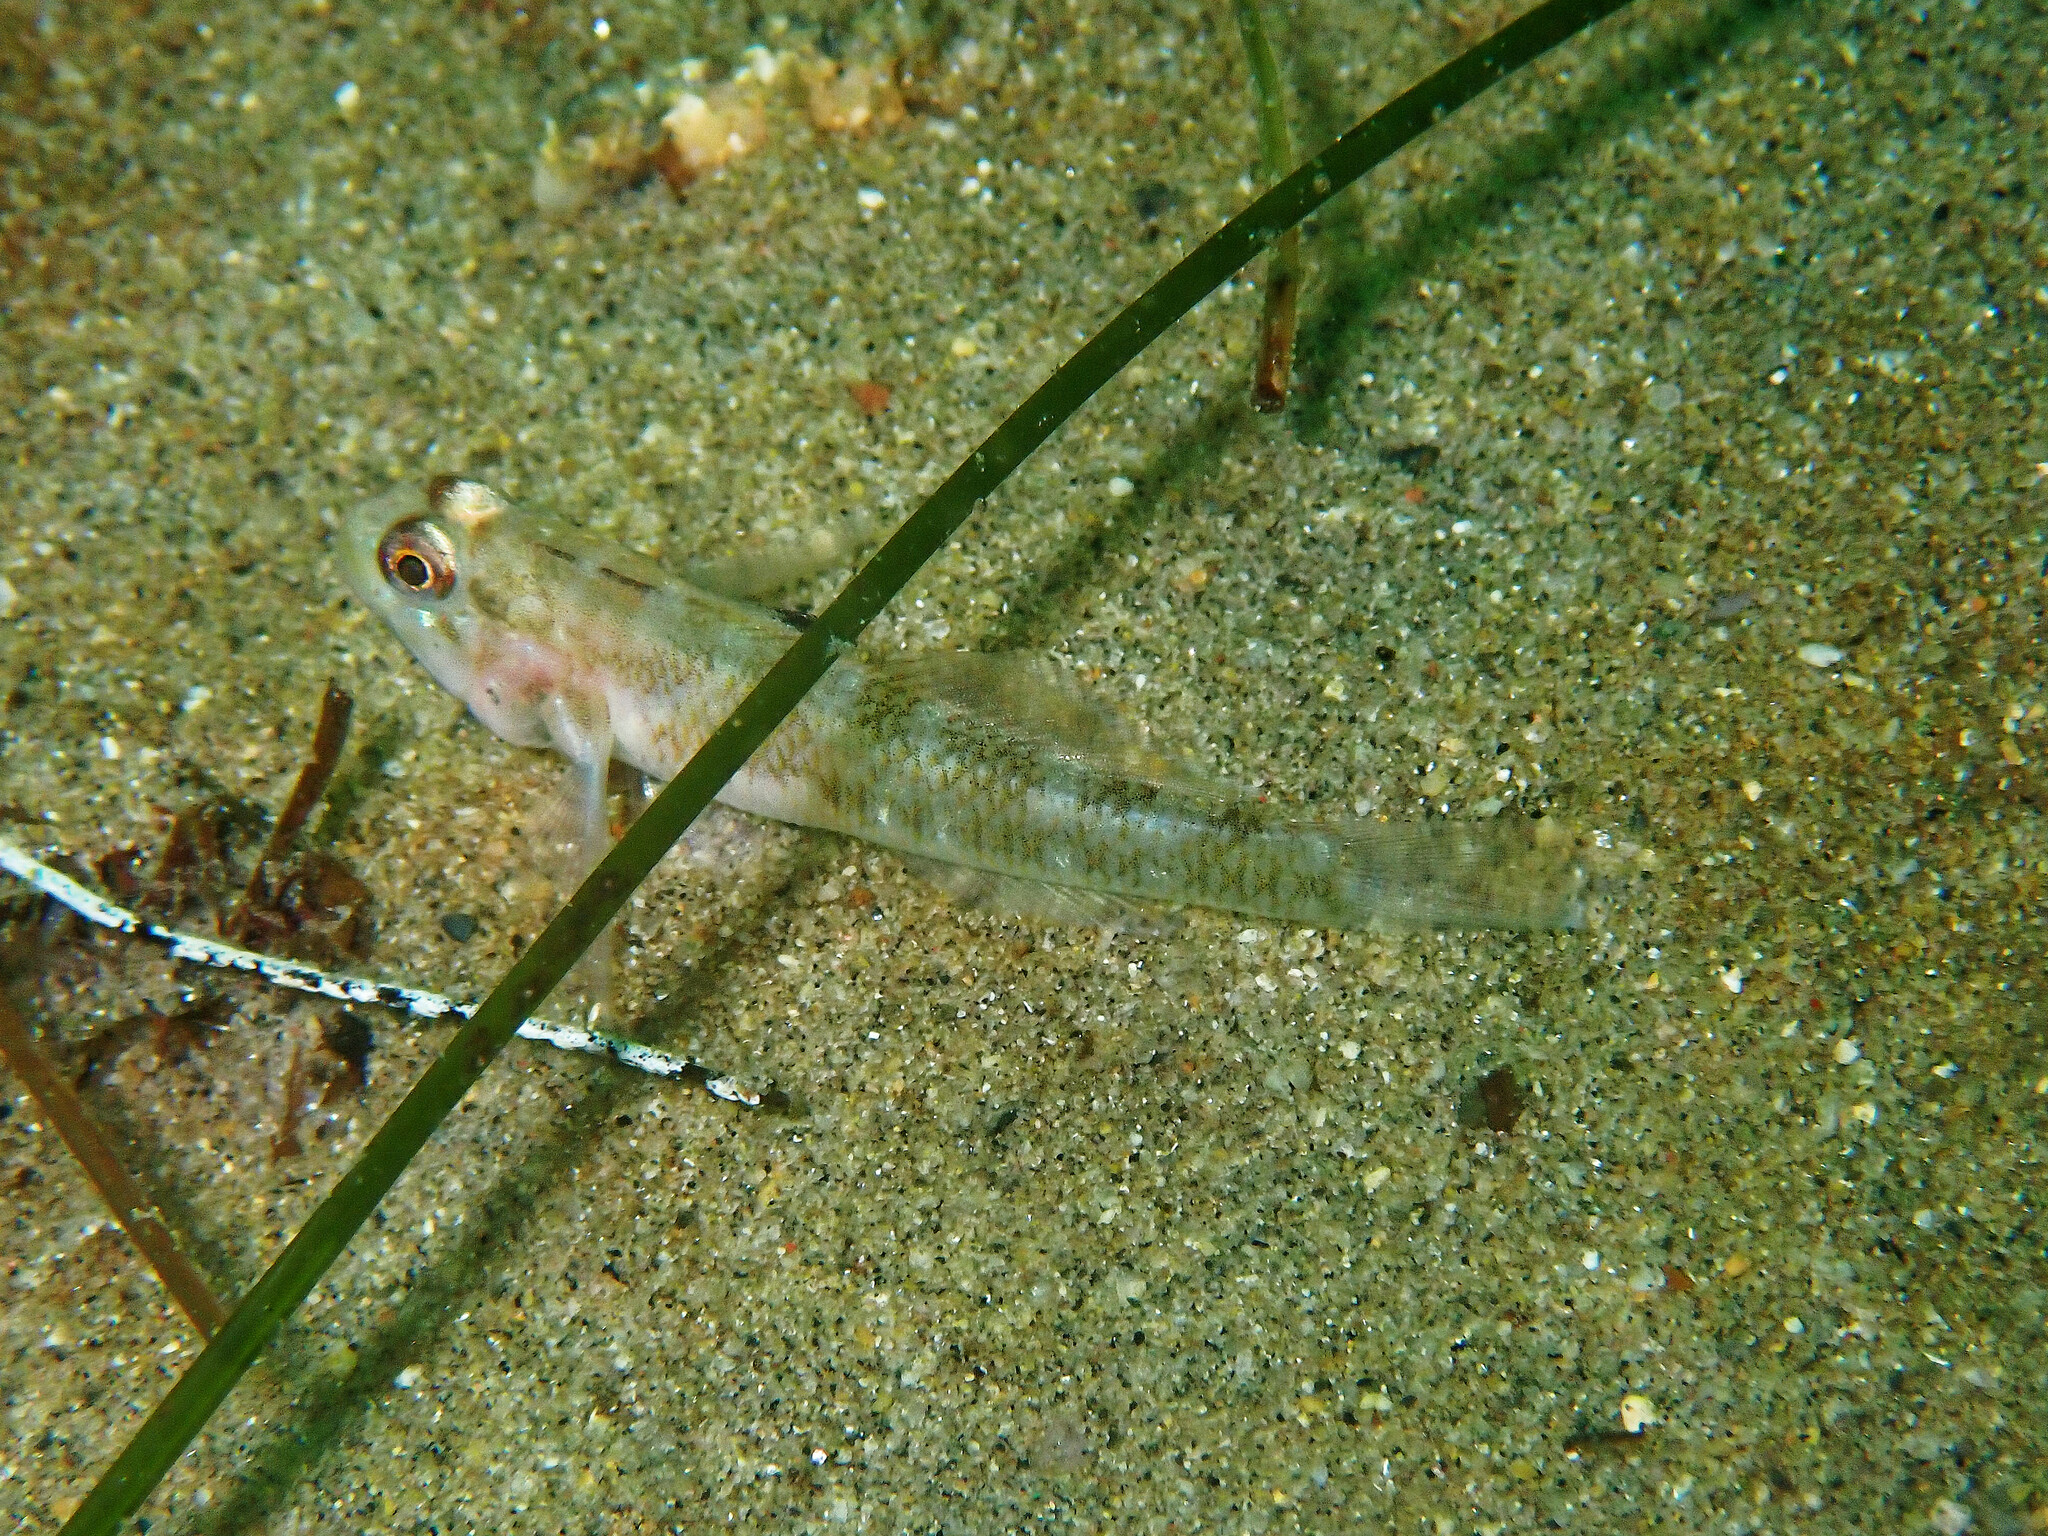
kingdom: Animalia
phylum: Chordata
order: Perciformes
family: Gobiidae
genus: Rhinogobiops
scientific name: Rhinogobiops nicholsii
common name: Blackeye goby
